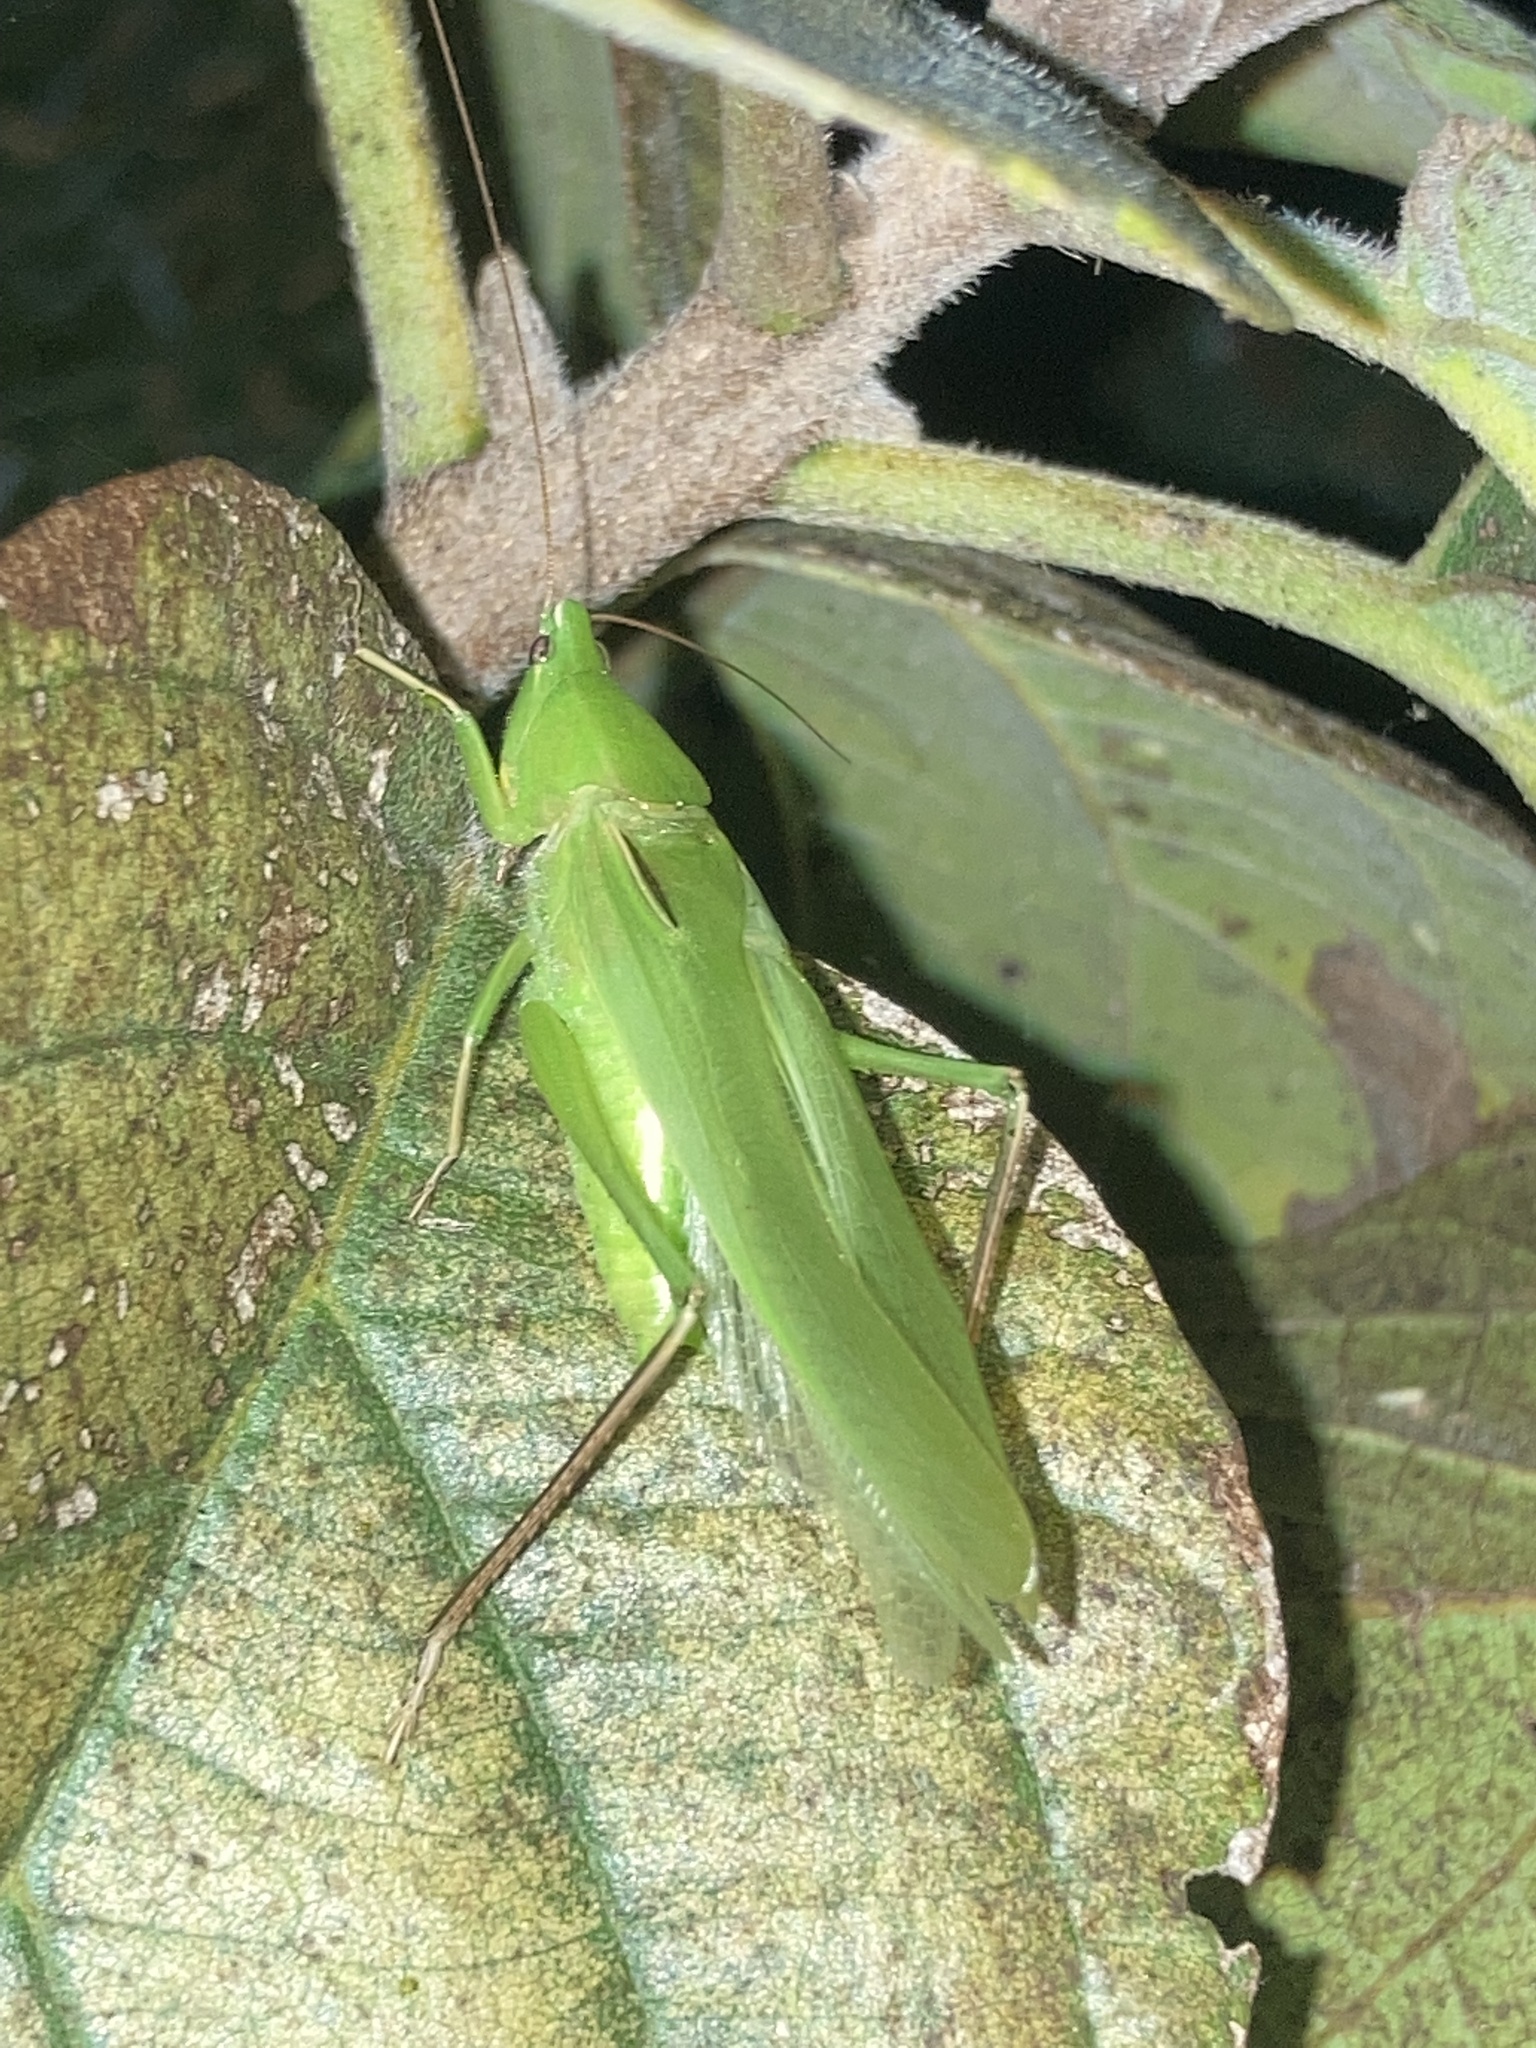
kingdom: Animalia
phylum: Arthropoda
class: Insecta
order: Orthoptera
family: Tettigoniidae
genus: Neoconocephalus
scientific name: Neoconocephalus triops
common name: Broad-tipped conehead
